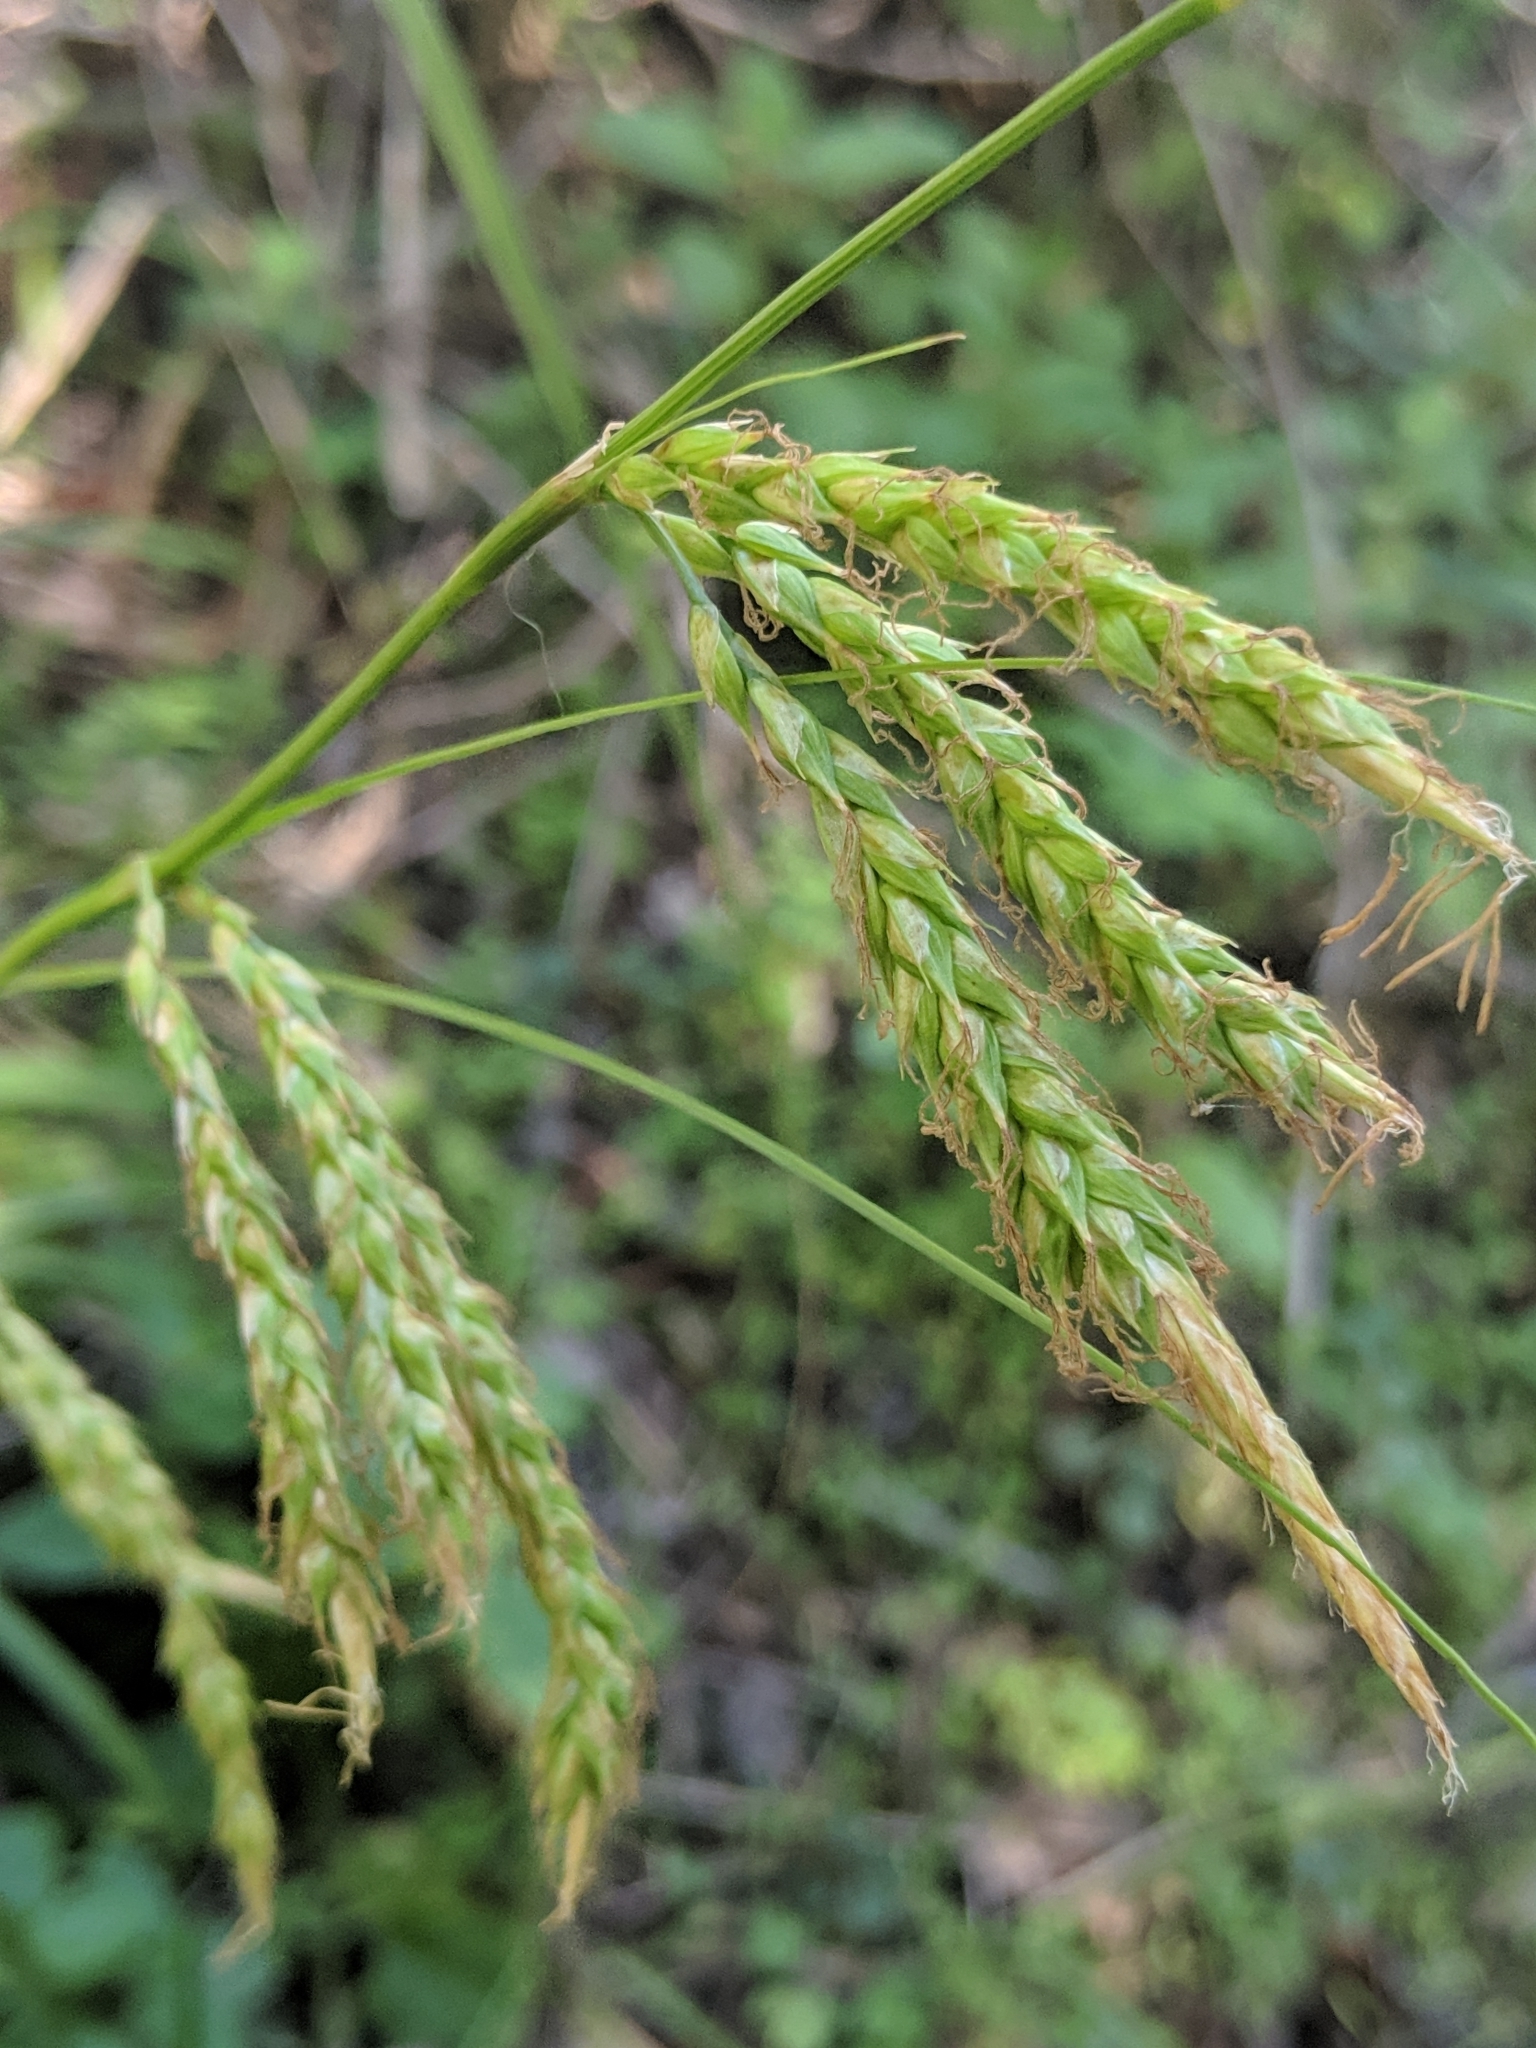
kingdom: Plantae
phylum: Tracheophyta
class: Liliopsida
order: Poales
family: Cyperaceae
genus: Carex
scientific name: Carex obispoensis
